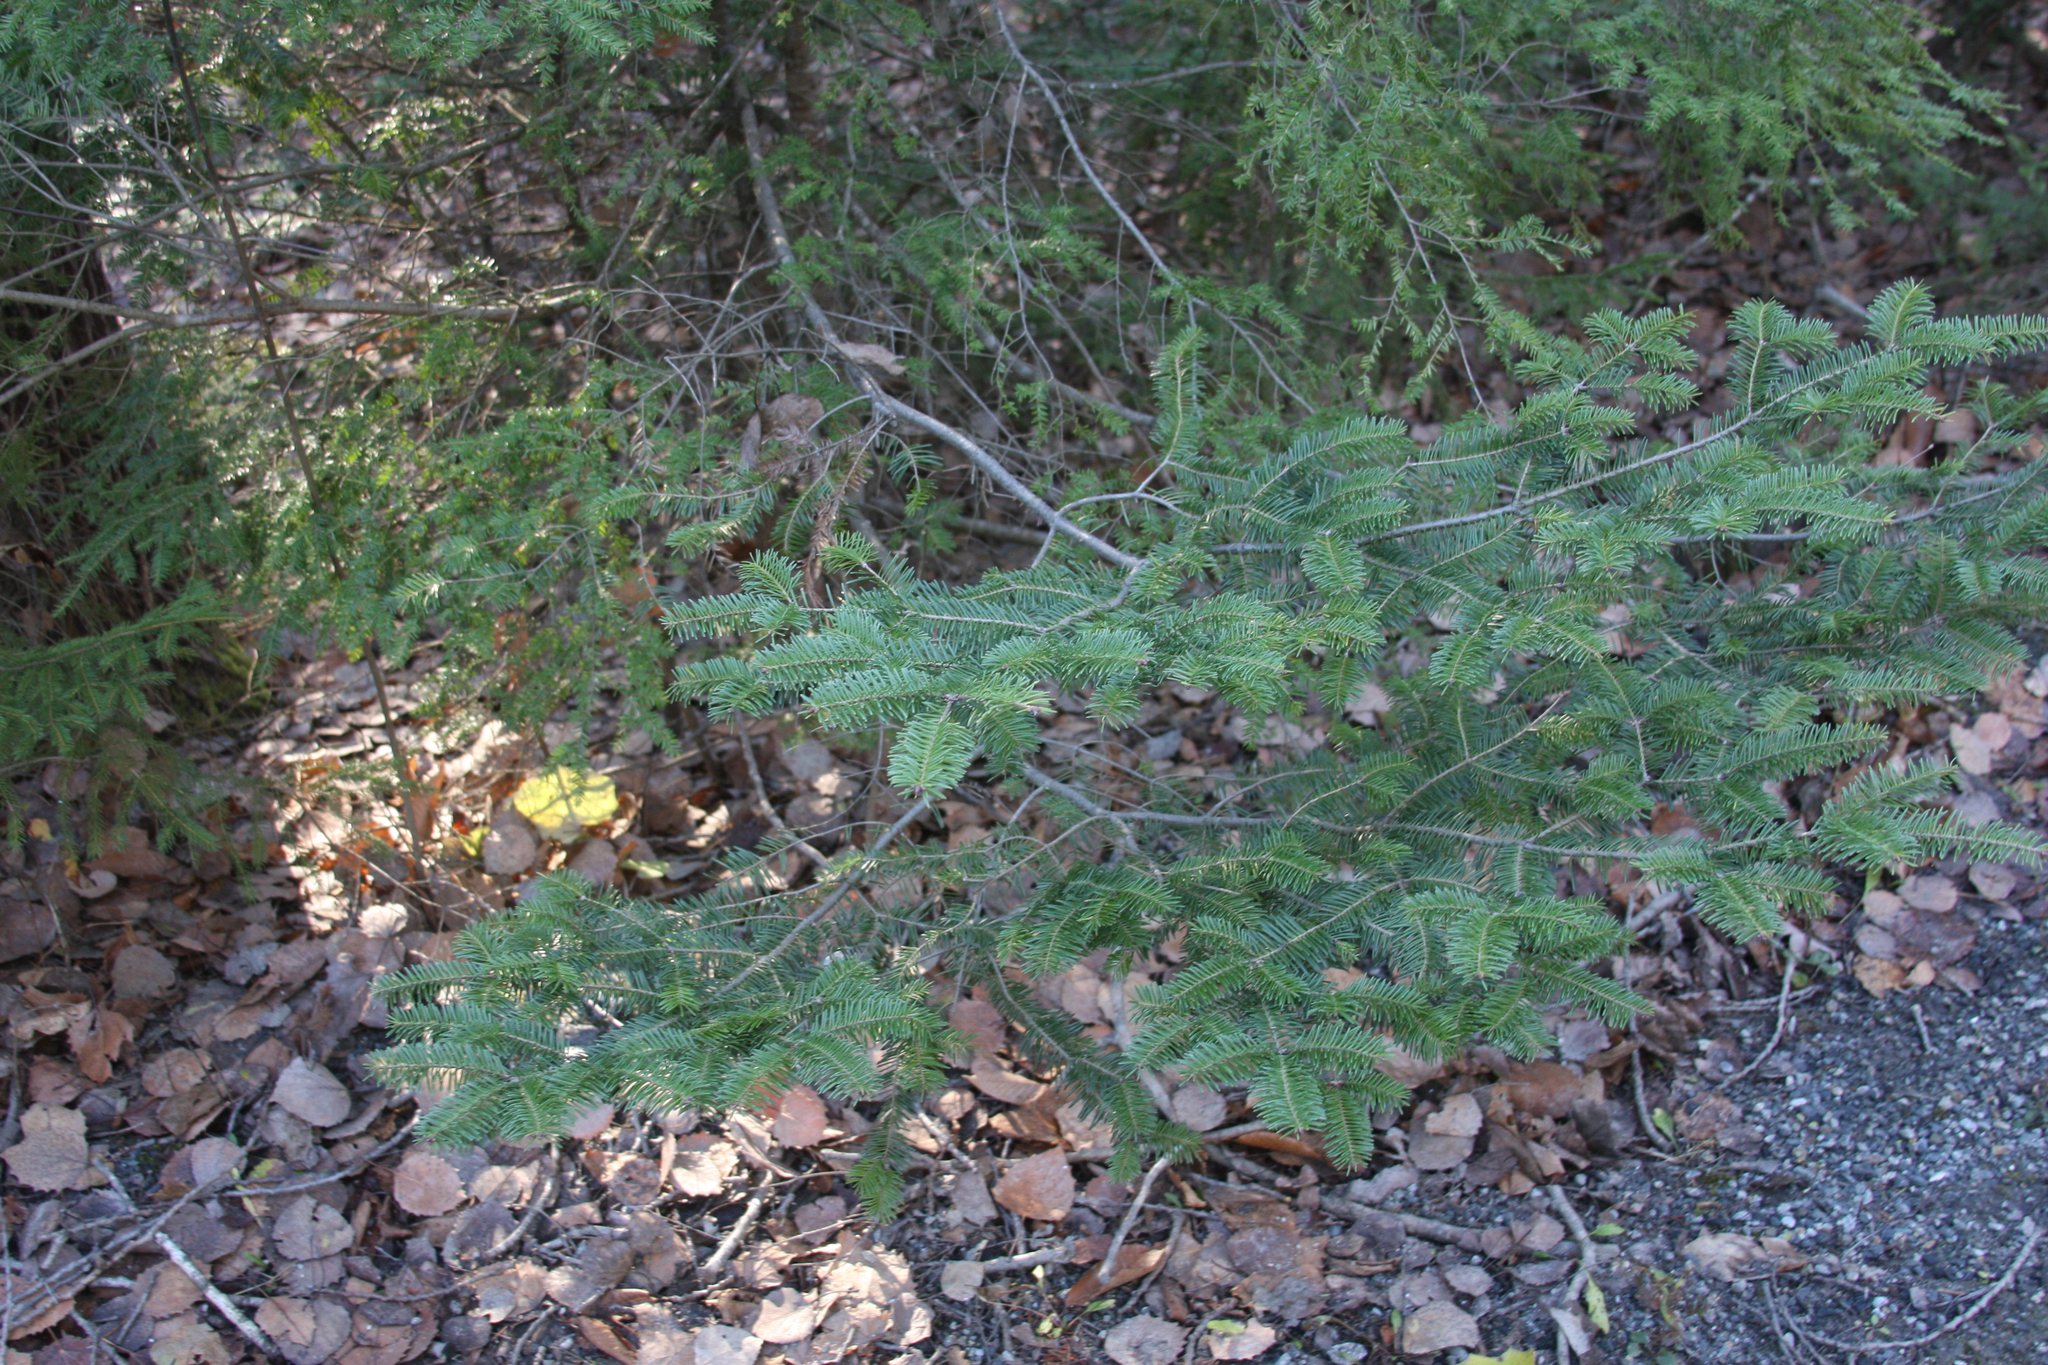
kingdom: Plantae
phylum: Tracheophyta
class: Pinopsida
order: Pinales
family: Pinaceae
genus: Abies
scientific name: Abies balsamea
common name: Balsam fir
